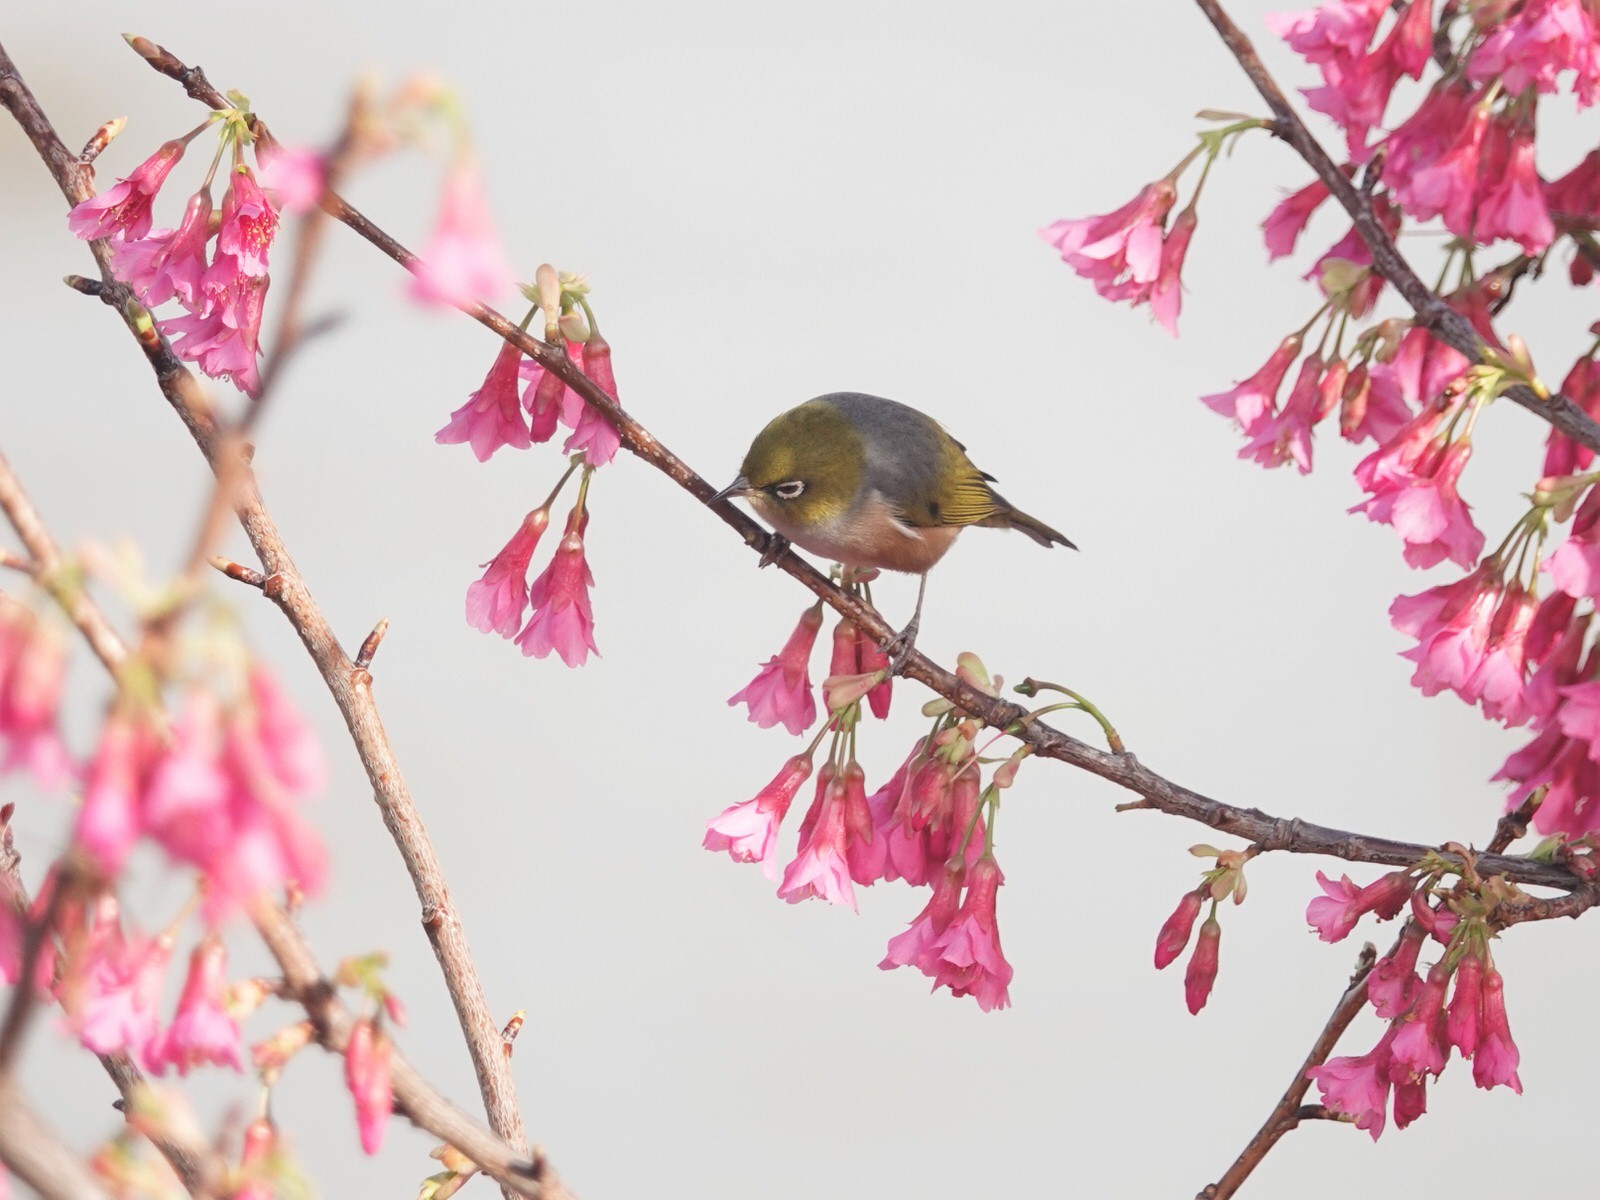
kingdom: Plantae
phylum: Tracheophyta
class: Magnoliopsida
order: Rosales
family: Rosaceae
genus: Prunus
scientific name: Prunus campanulata
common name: Taiwan flowering cherry
